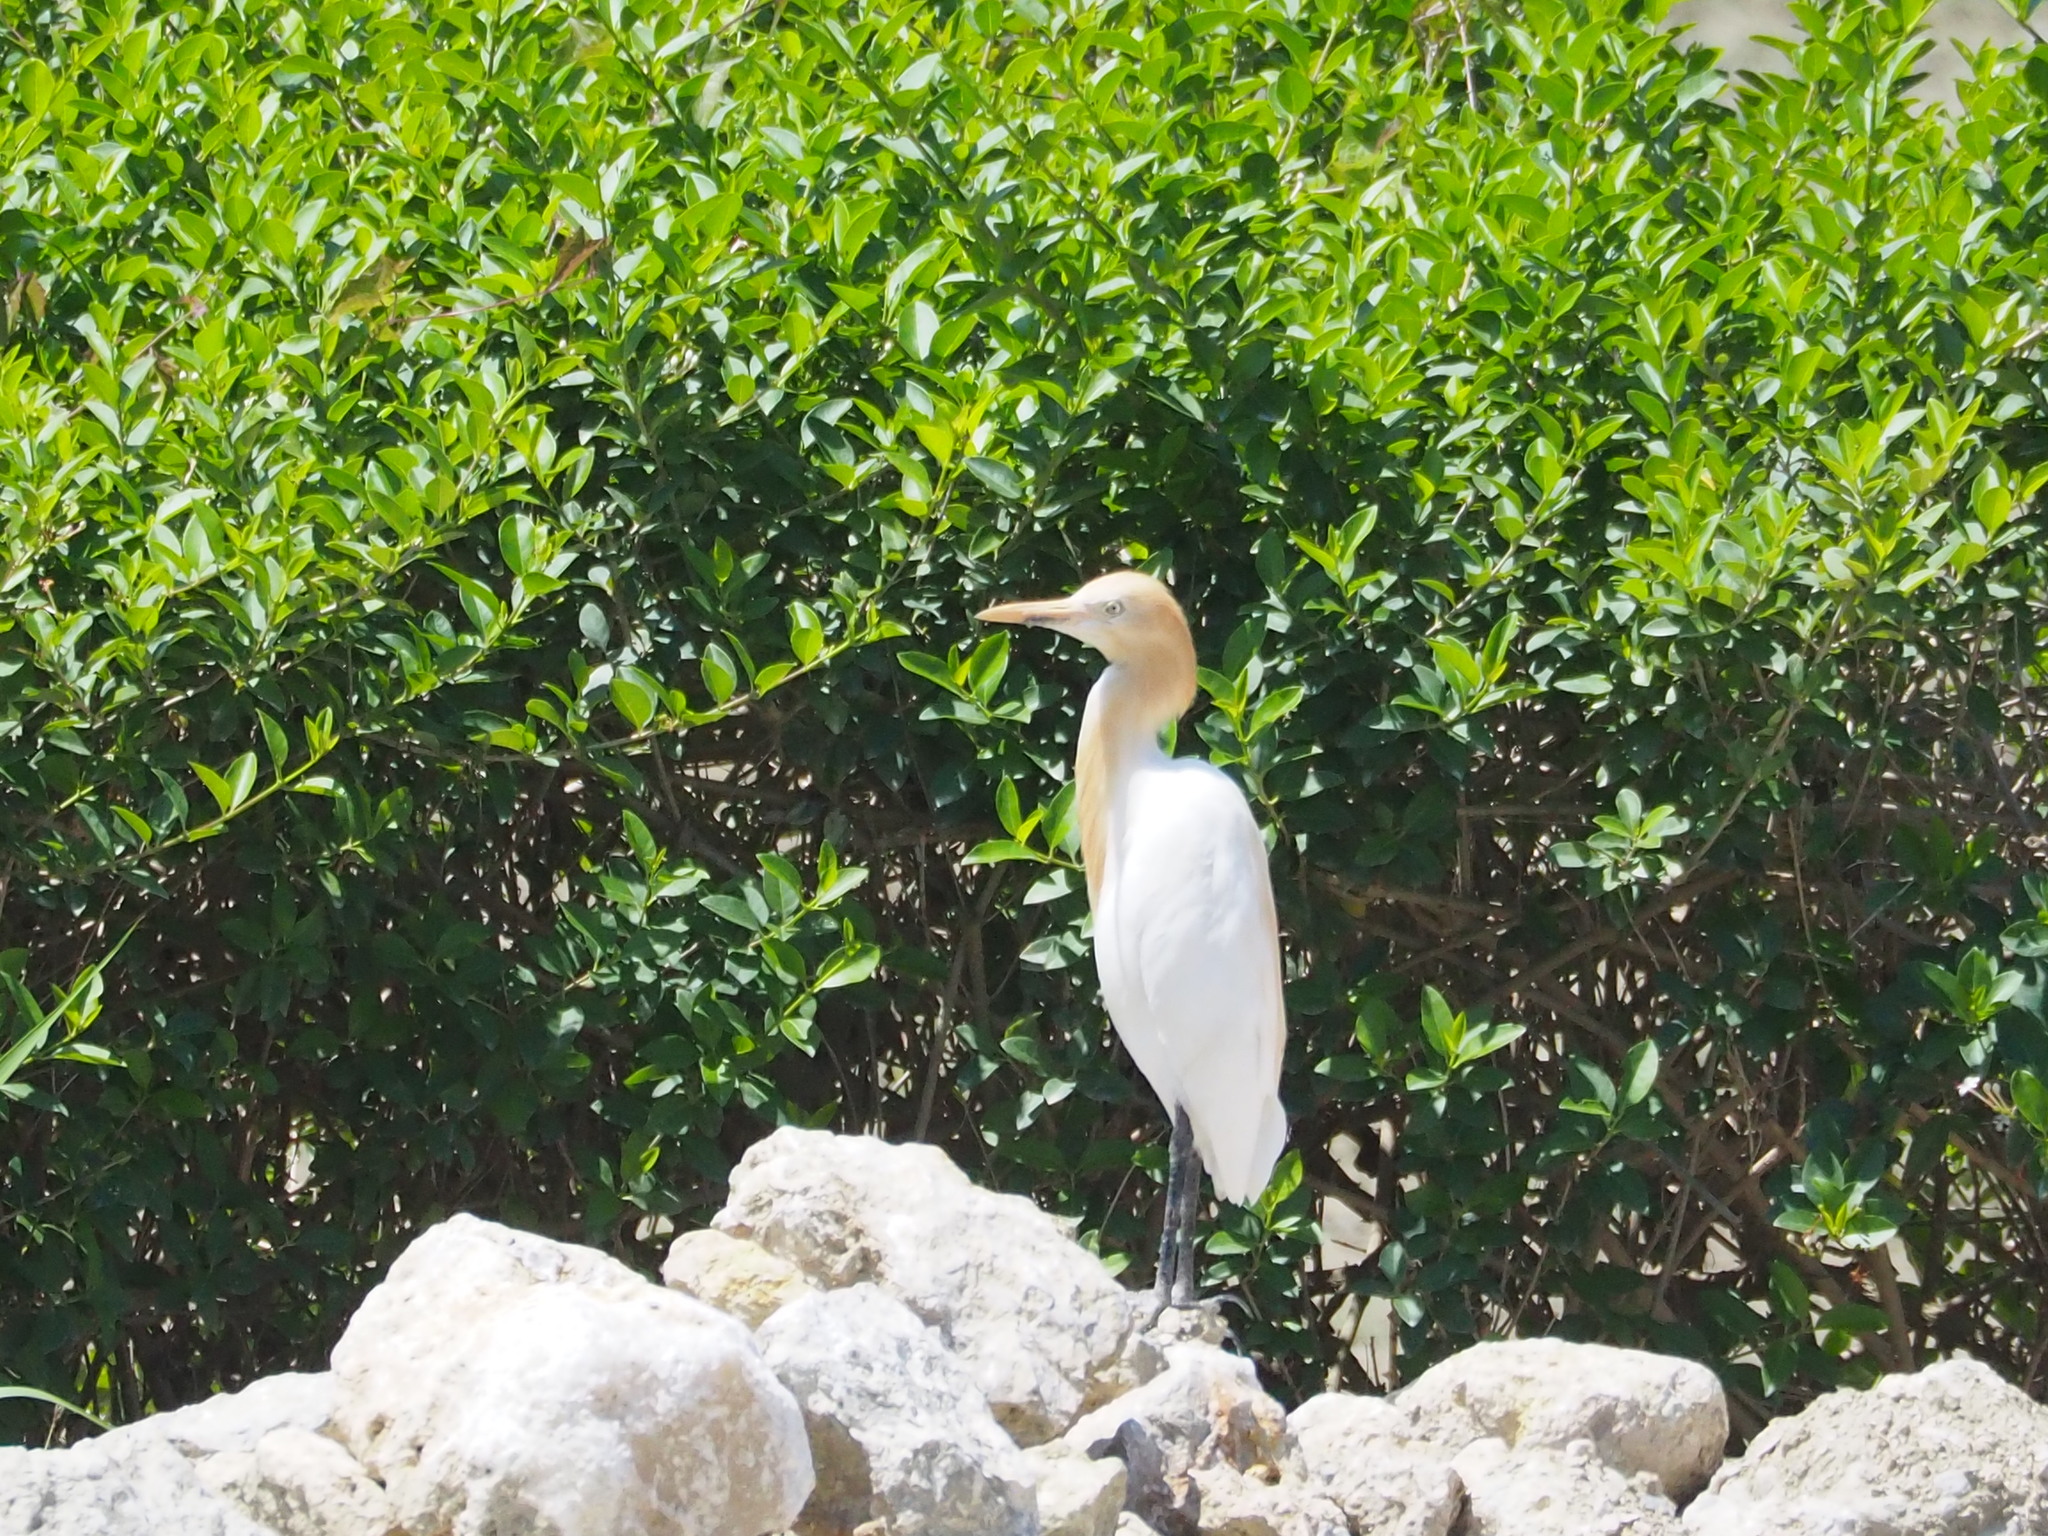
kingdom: Animalia
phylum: Chordata
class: Aves
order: Pelecaniformes
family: Ardeidae
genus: Bubulcus
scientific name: Bubulcus coromandus
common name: Eastern cattle egret
